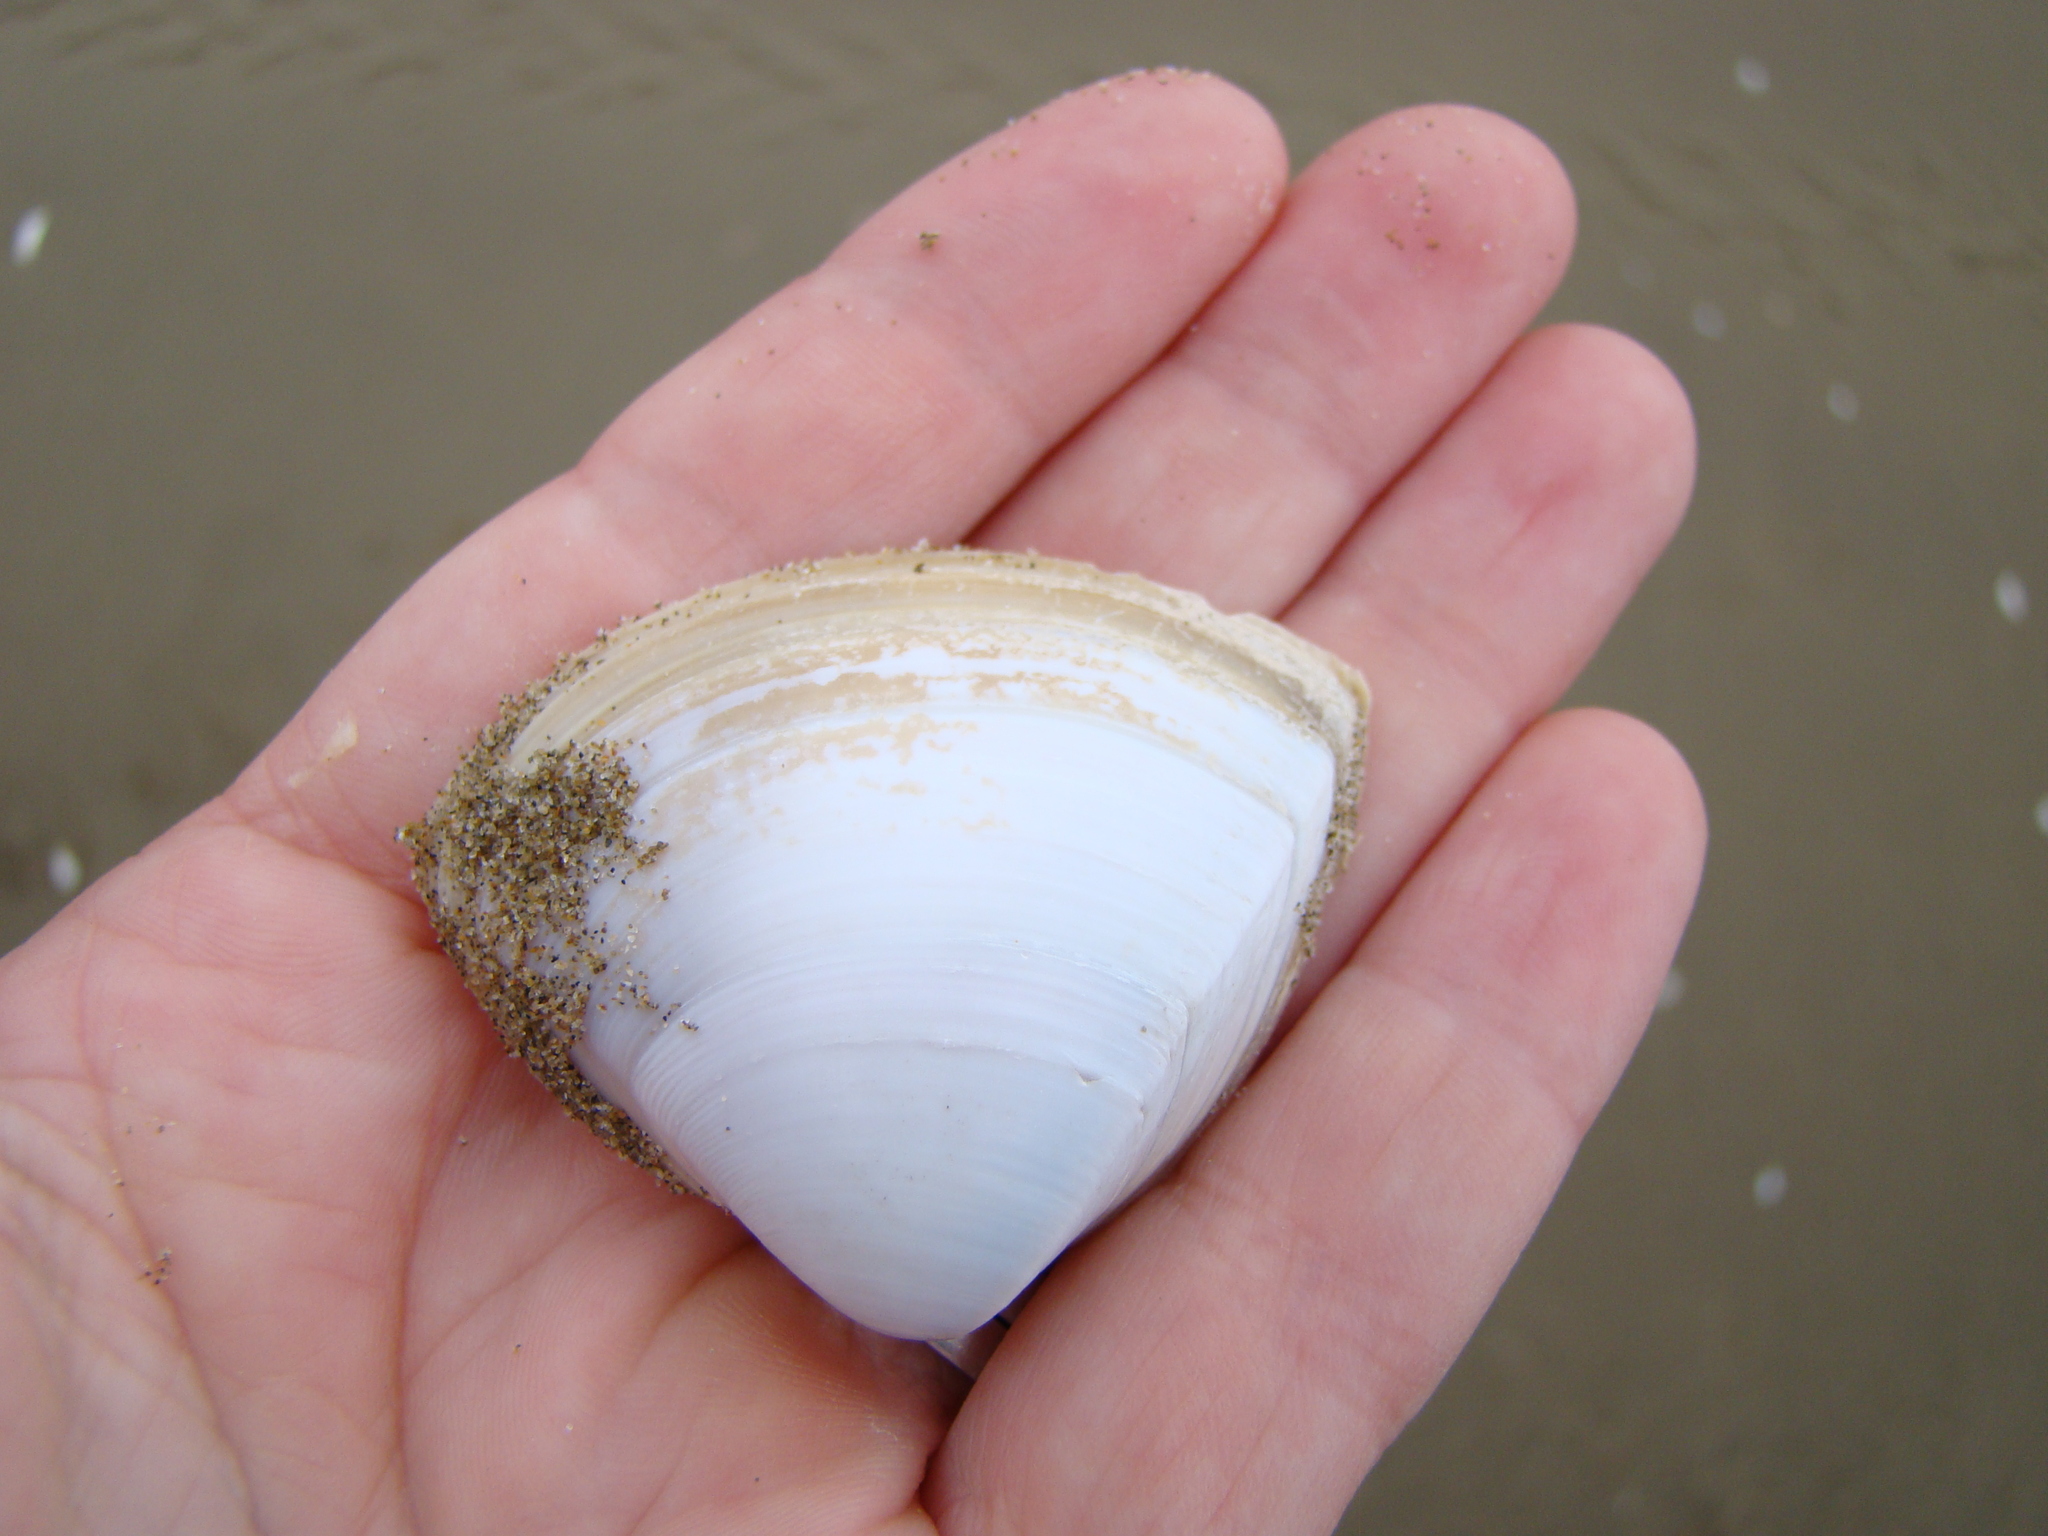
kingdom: Animalia
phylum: Mollusca
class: Bivalvia
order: Venerida
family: Mactridae
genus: Crassula
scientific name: Crassula aequilatera
